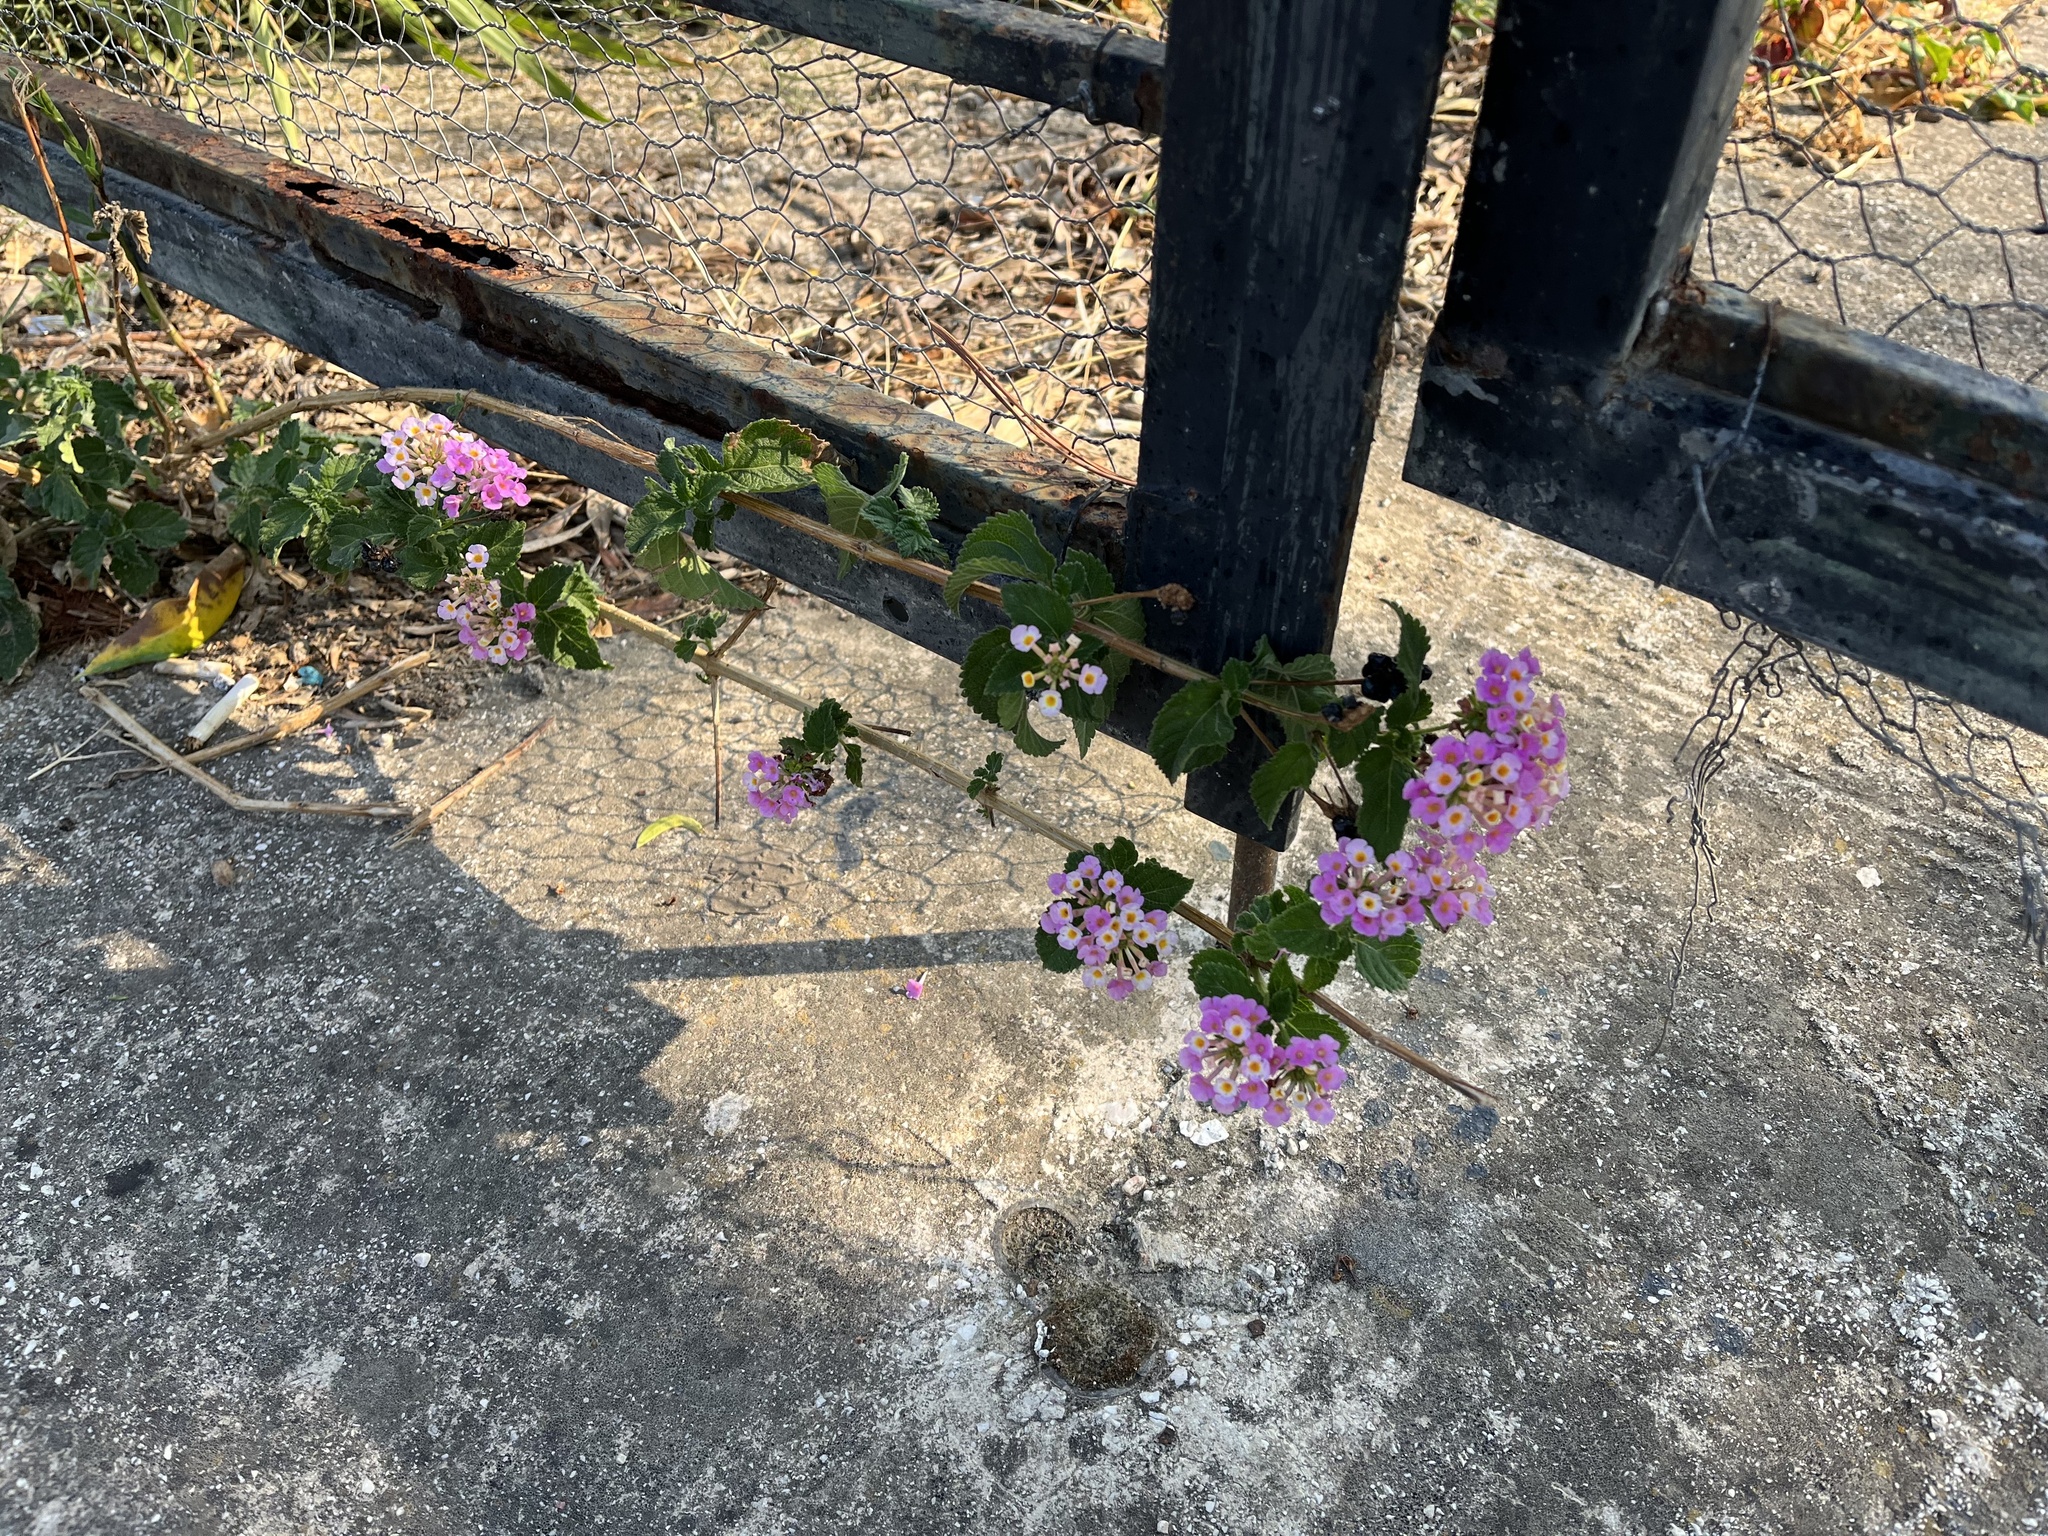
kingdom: Plantae
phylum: Tracheophyta
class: Magnoliopsida
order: Lamiales
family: Verbenaceae
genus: Lantana
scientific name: Lantana camara
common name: Lantana
